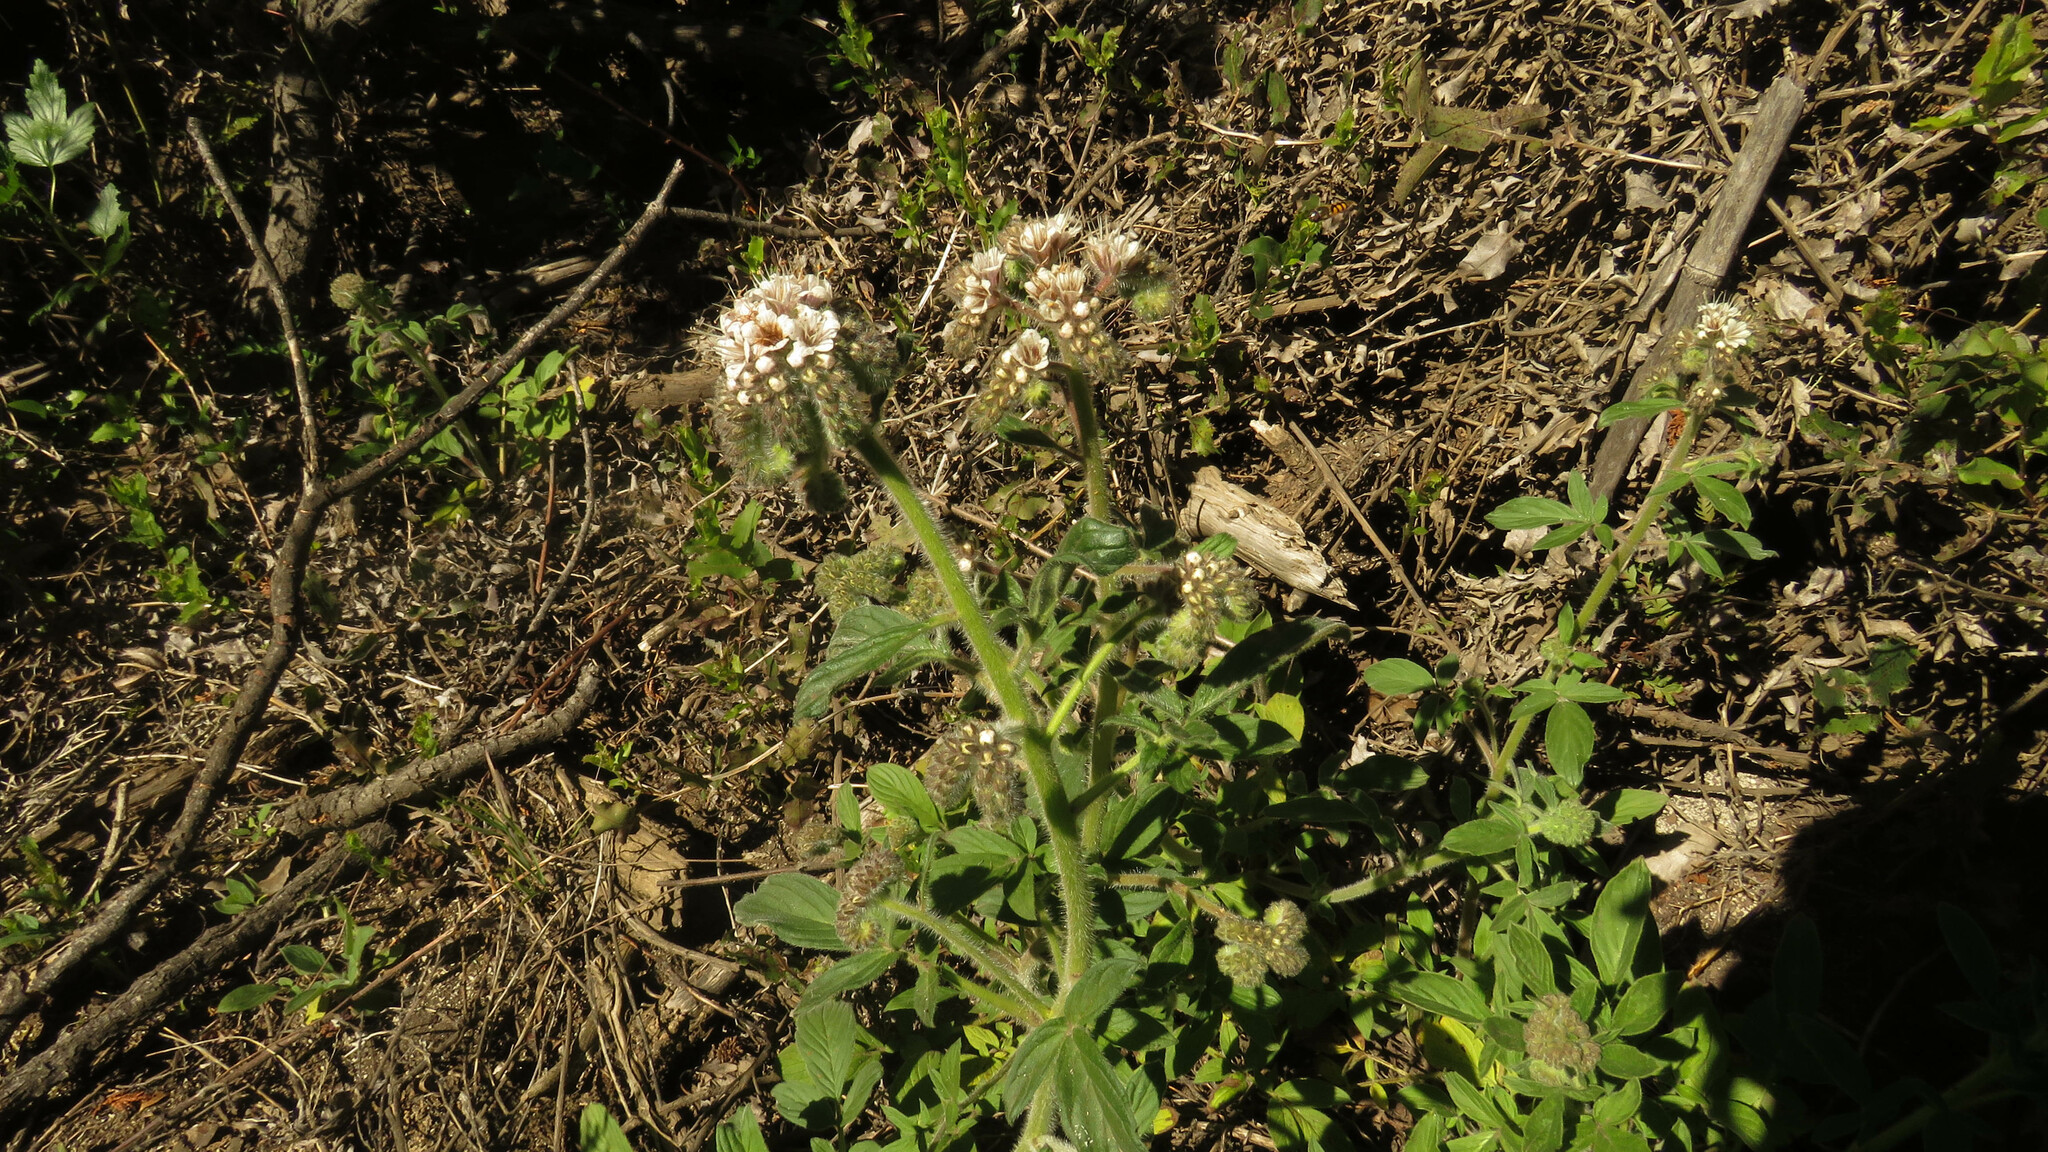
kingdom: Plantae
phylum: Tracheophyta
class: Magnoliopsida
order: Boraginales
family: Hydrophyllaceae
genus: Phacelia
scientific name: Phacelia secunda
